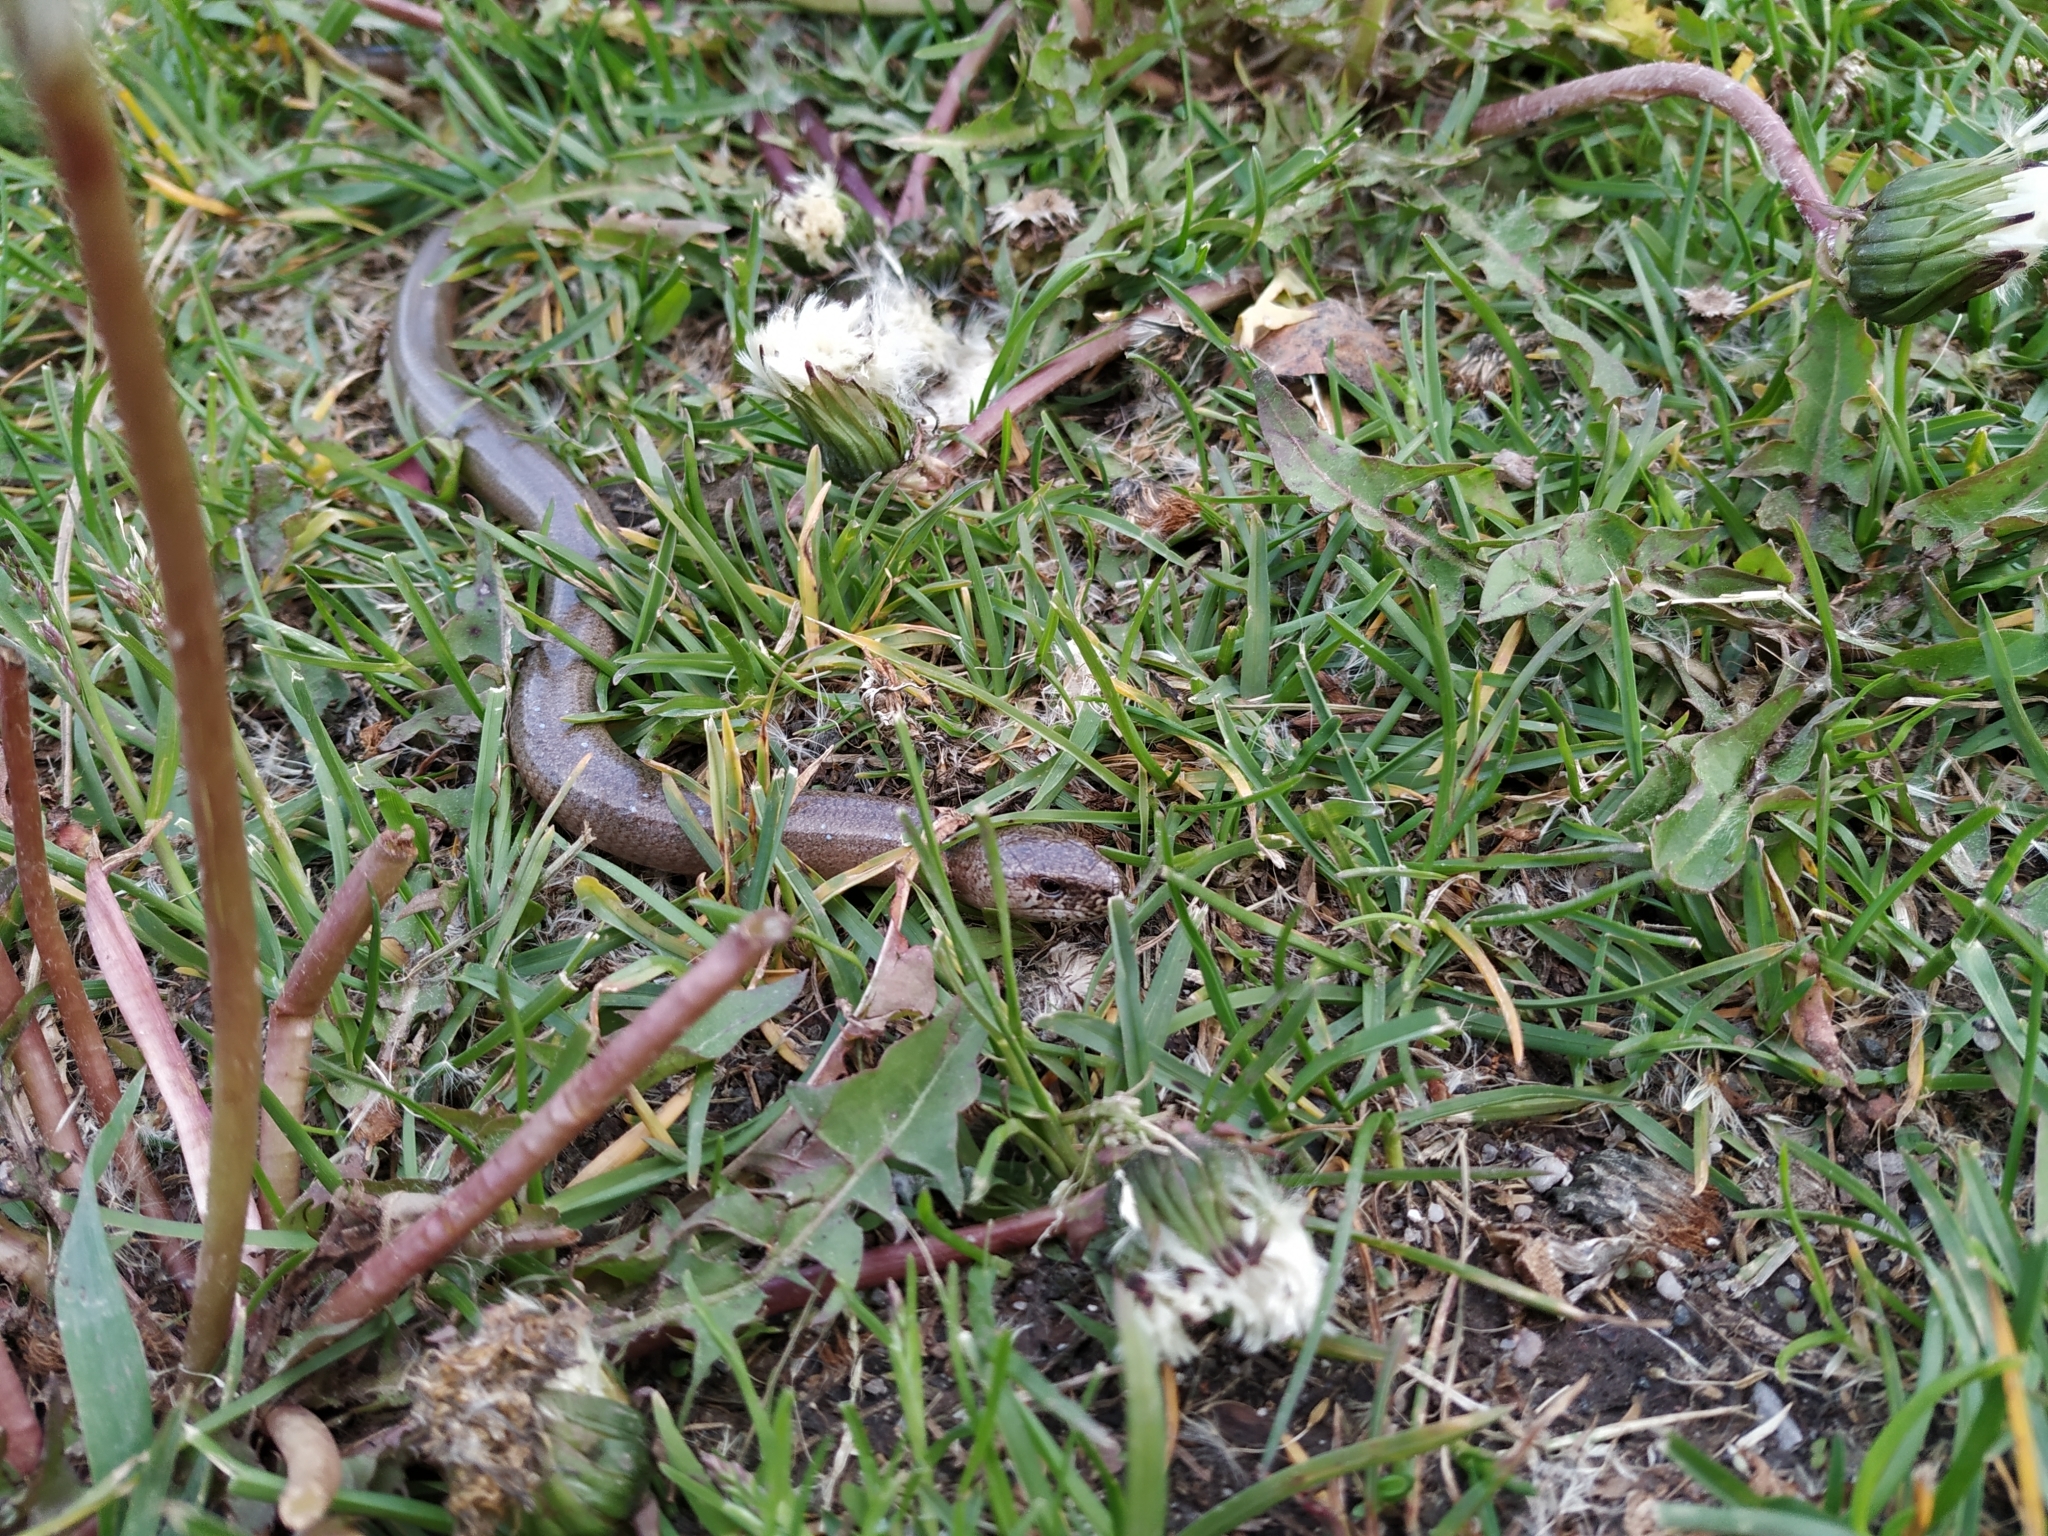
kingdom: Animalia
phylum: Chordata
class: Squamata
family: Anguidae
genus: Anguis
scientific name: Anguis fragilis
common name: Slow worm
